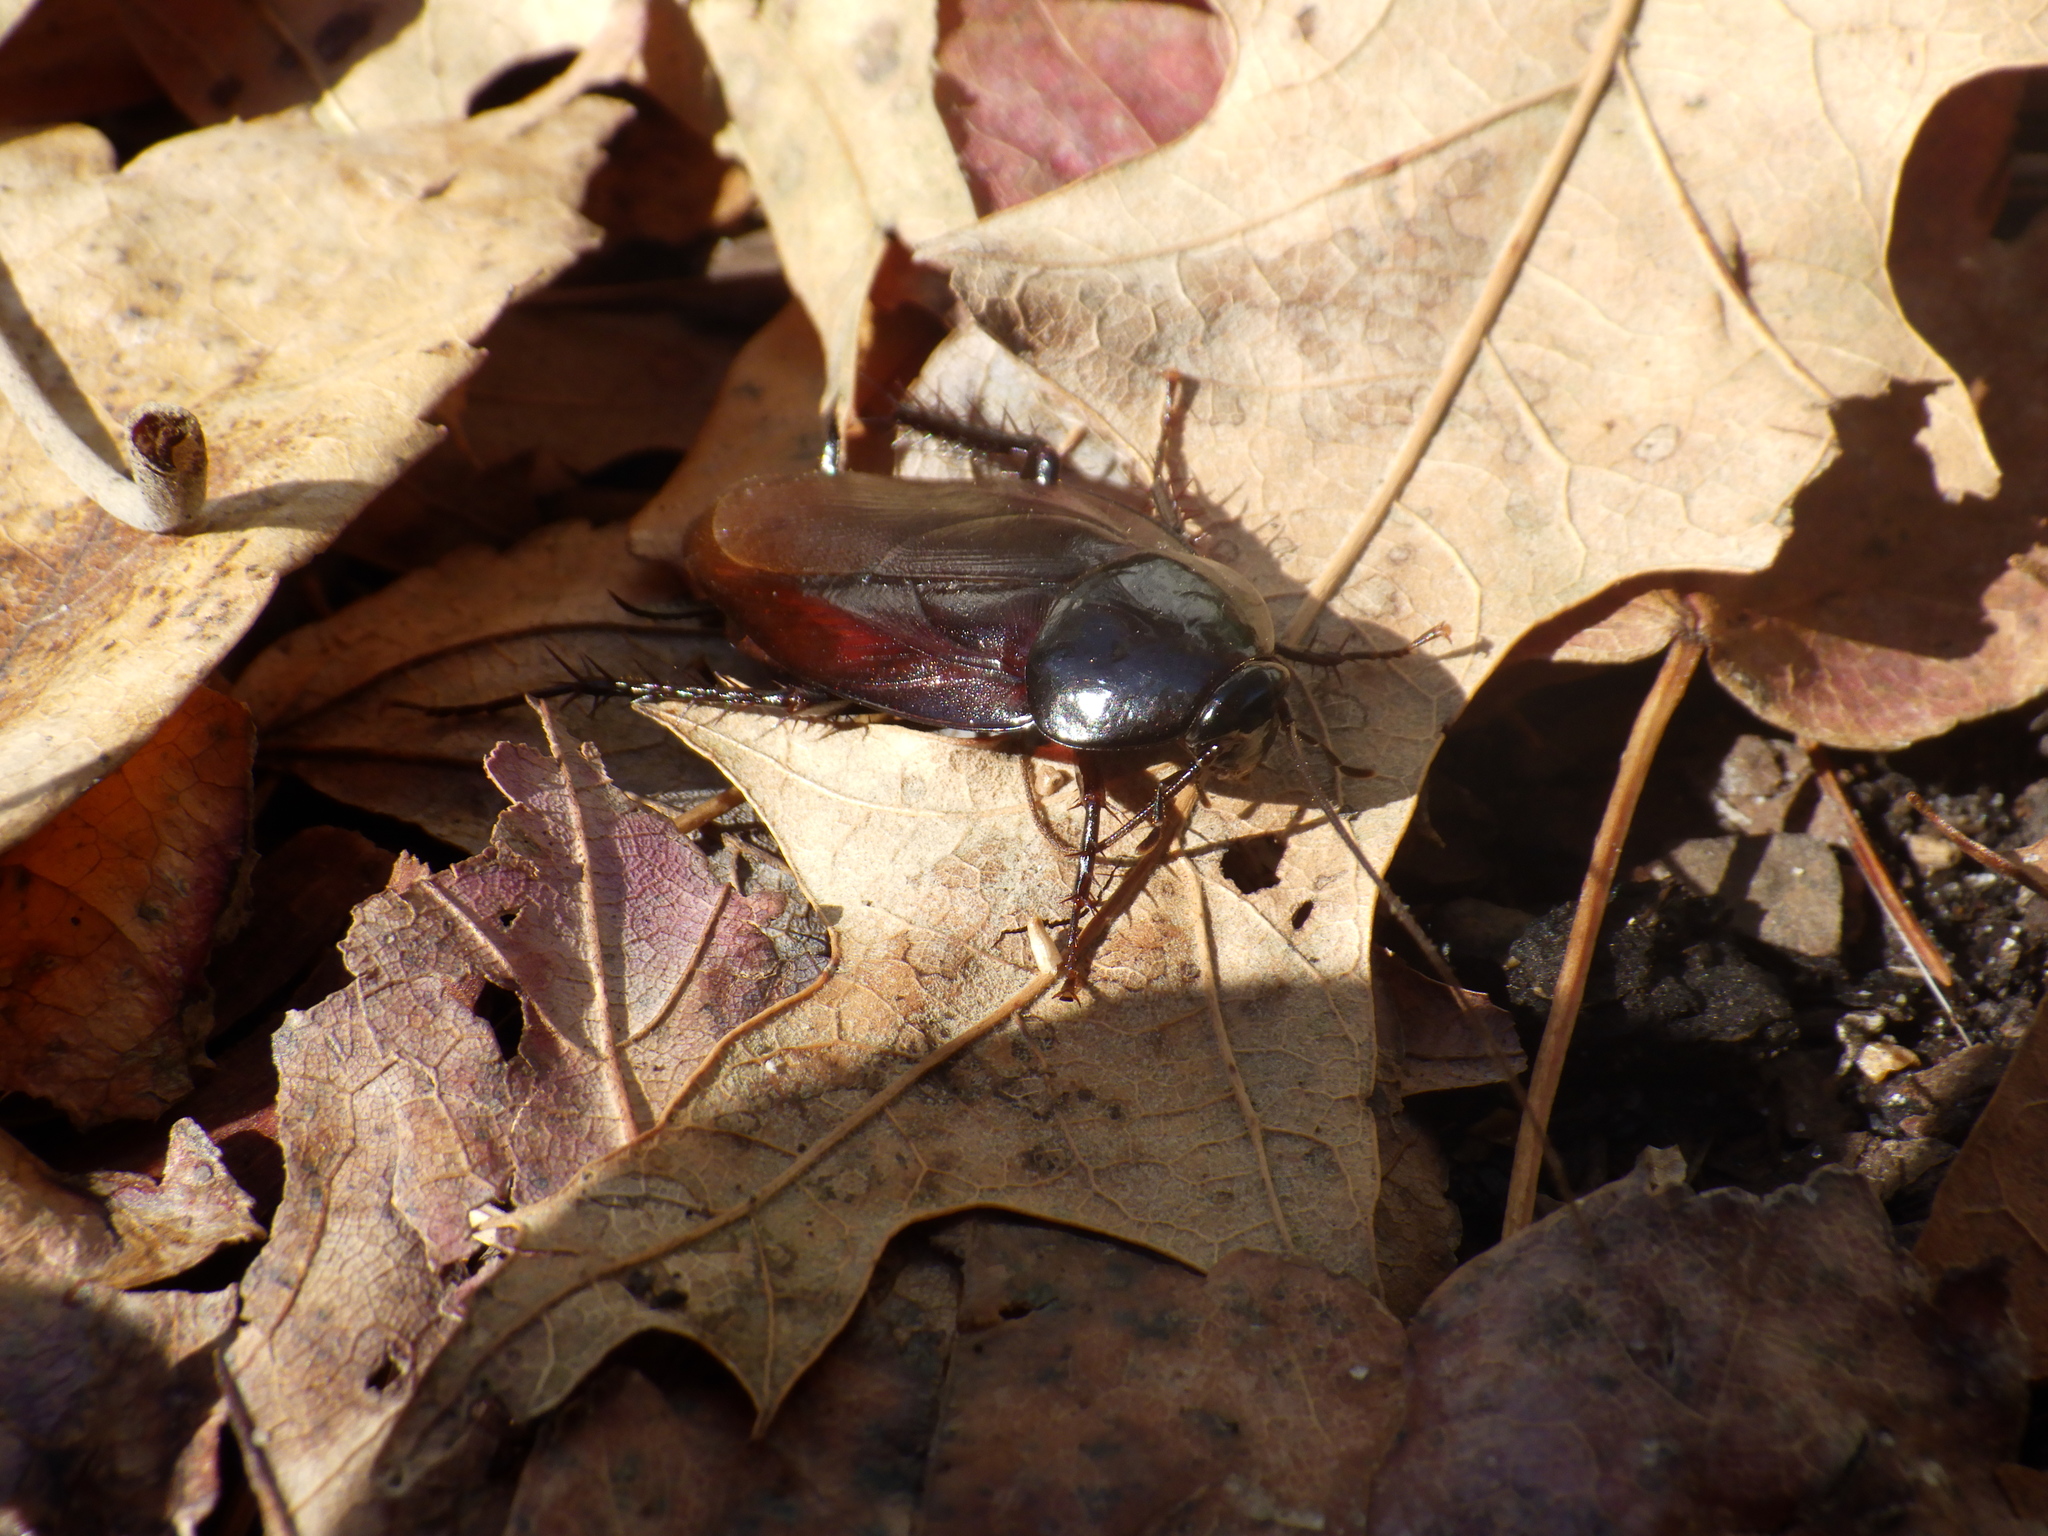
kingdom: Animalia
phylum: Arthropoda
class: Insecta
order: Blattodea
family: Blattidae
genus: Periplaneta
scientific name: Periplaneta fuliginosa
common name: Smokeybrown cockroad
